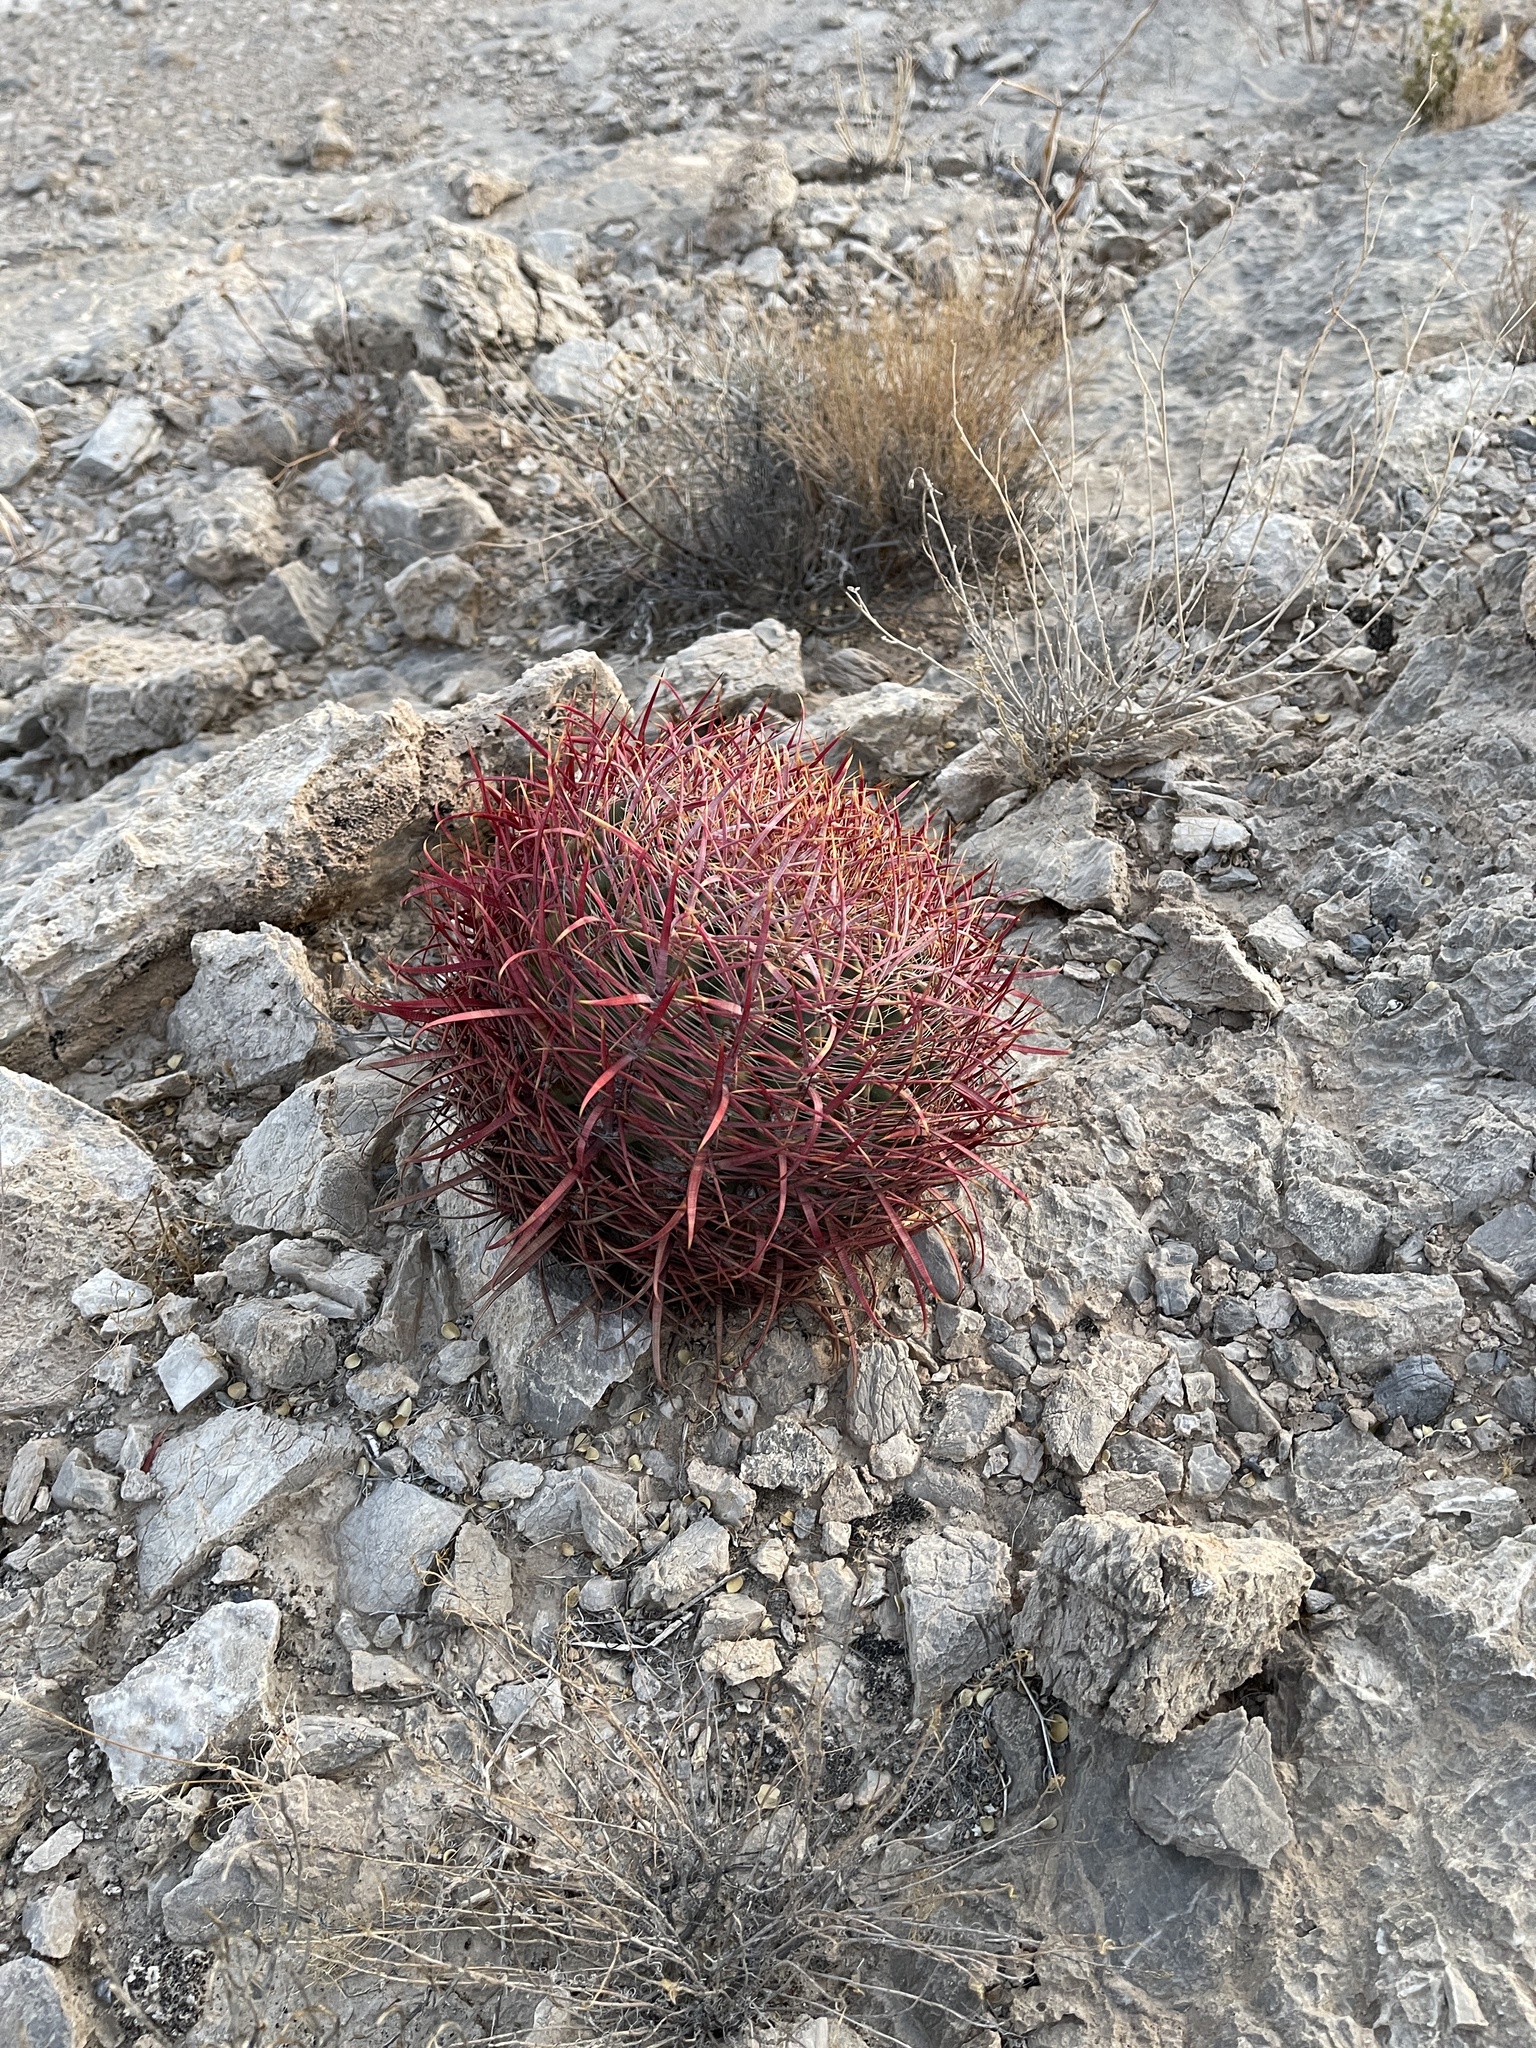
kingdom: Plantae
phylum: Tracheophyta
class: Magnoliopsida
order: Caryophyllales
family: Cactaceae
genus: Ferocactus
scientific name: Ferocactus cylindraceus
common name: California barrel cactus
